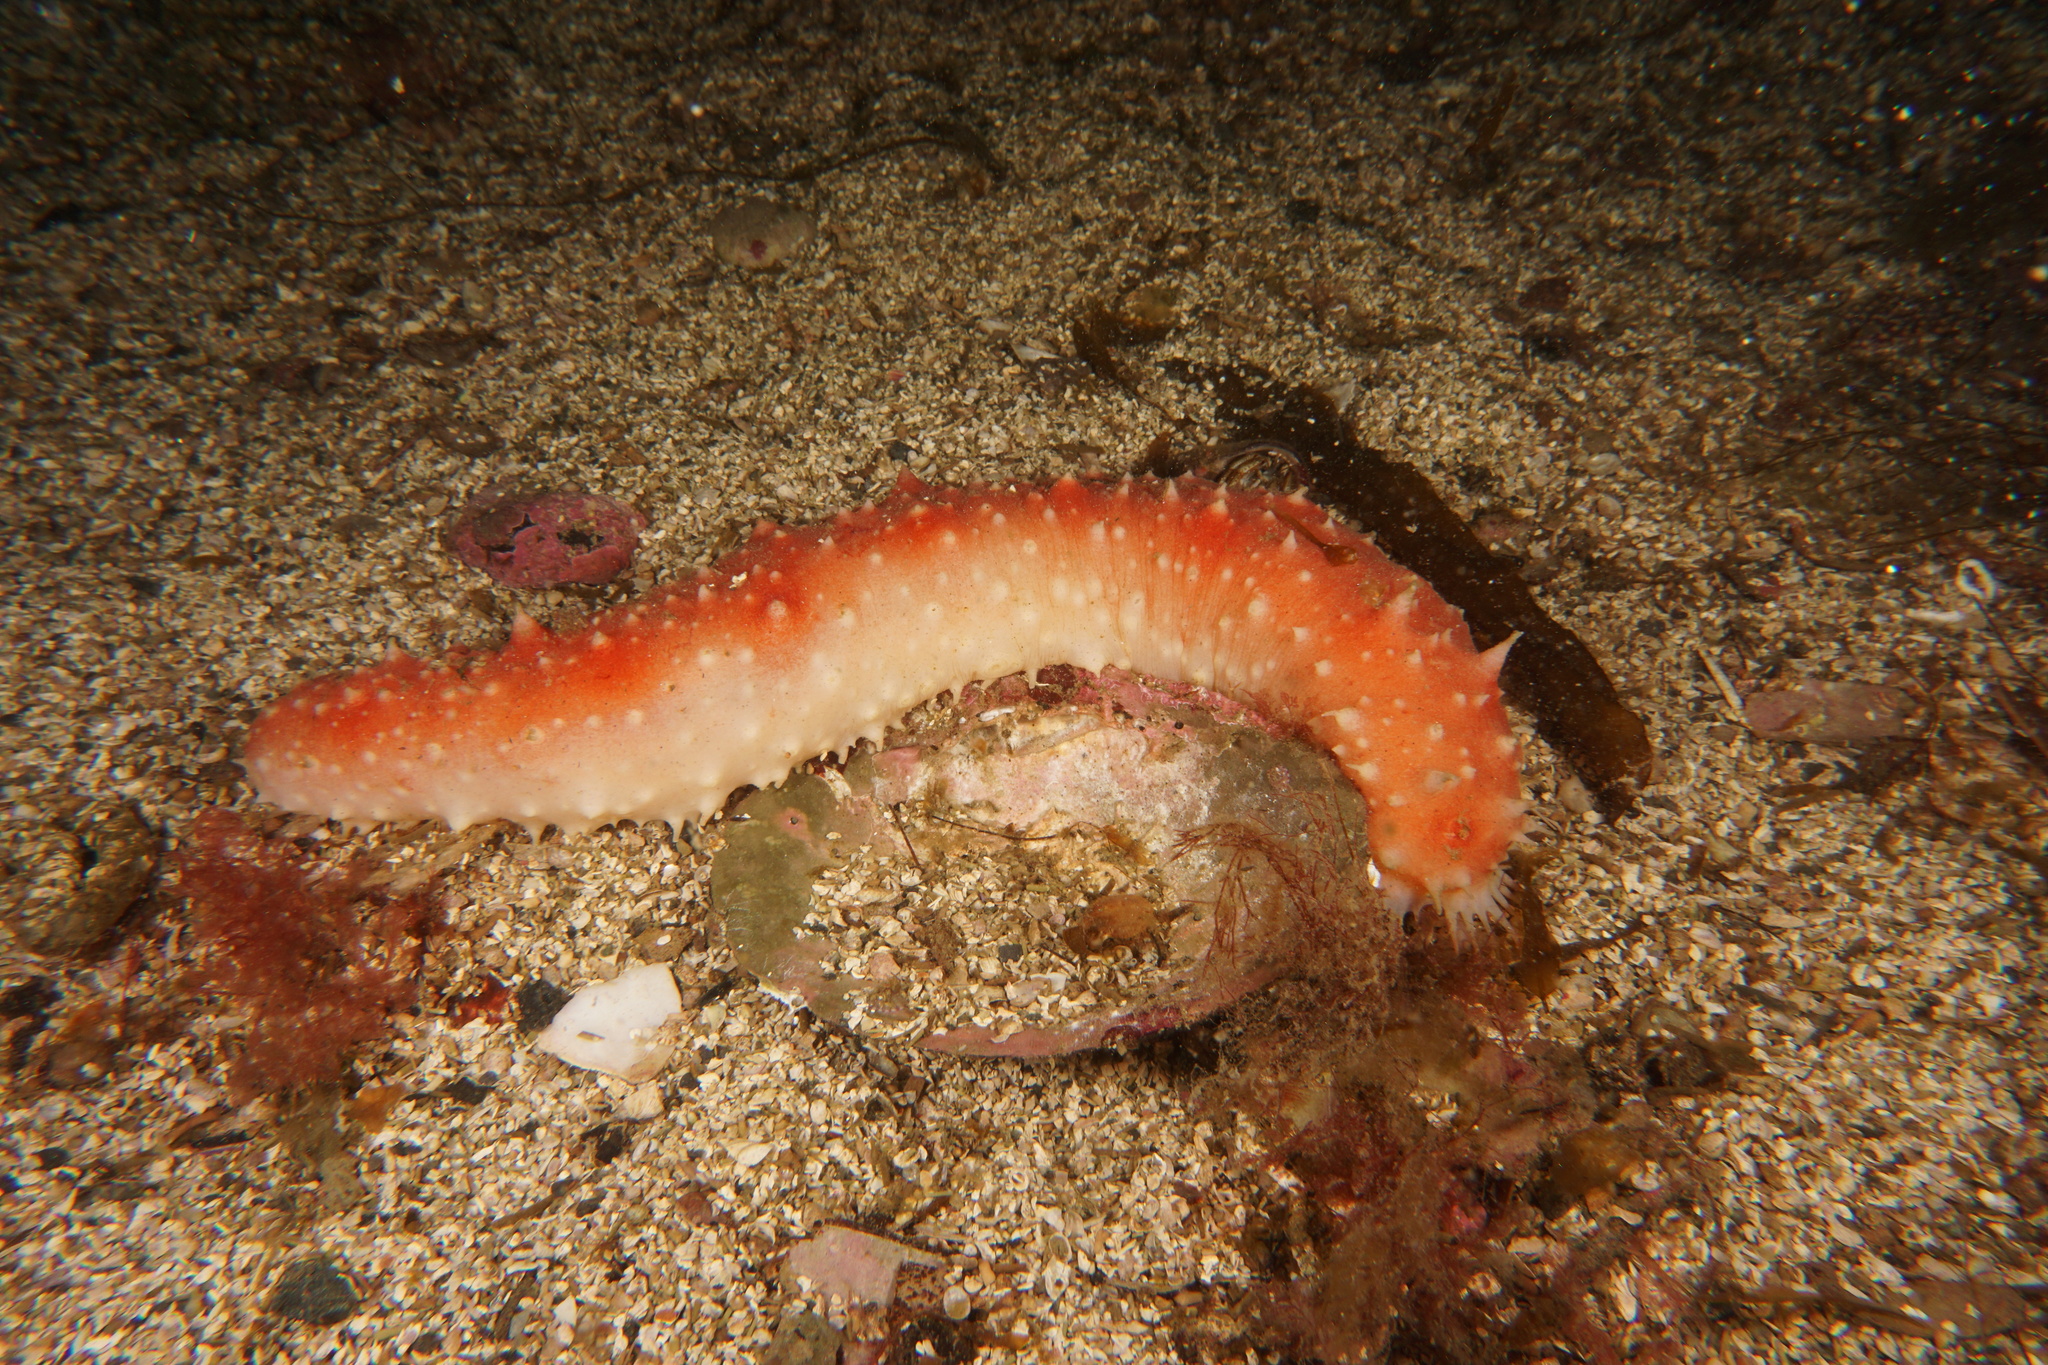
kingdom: Animalia
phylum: Echinodermata
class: Holothuroidea
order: Synallactida
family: Stichopodidae
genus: Parastichopus
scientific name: Parastichopus tremulus
